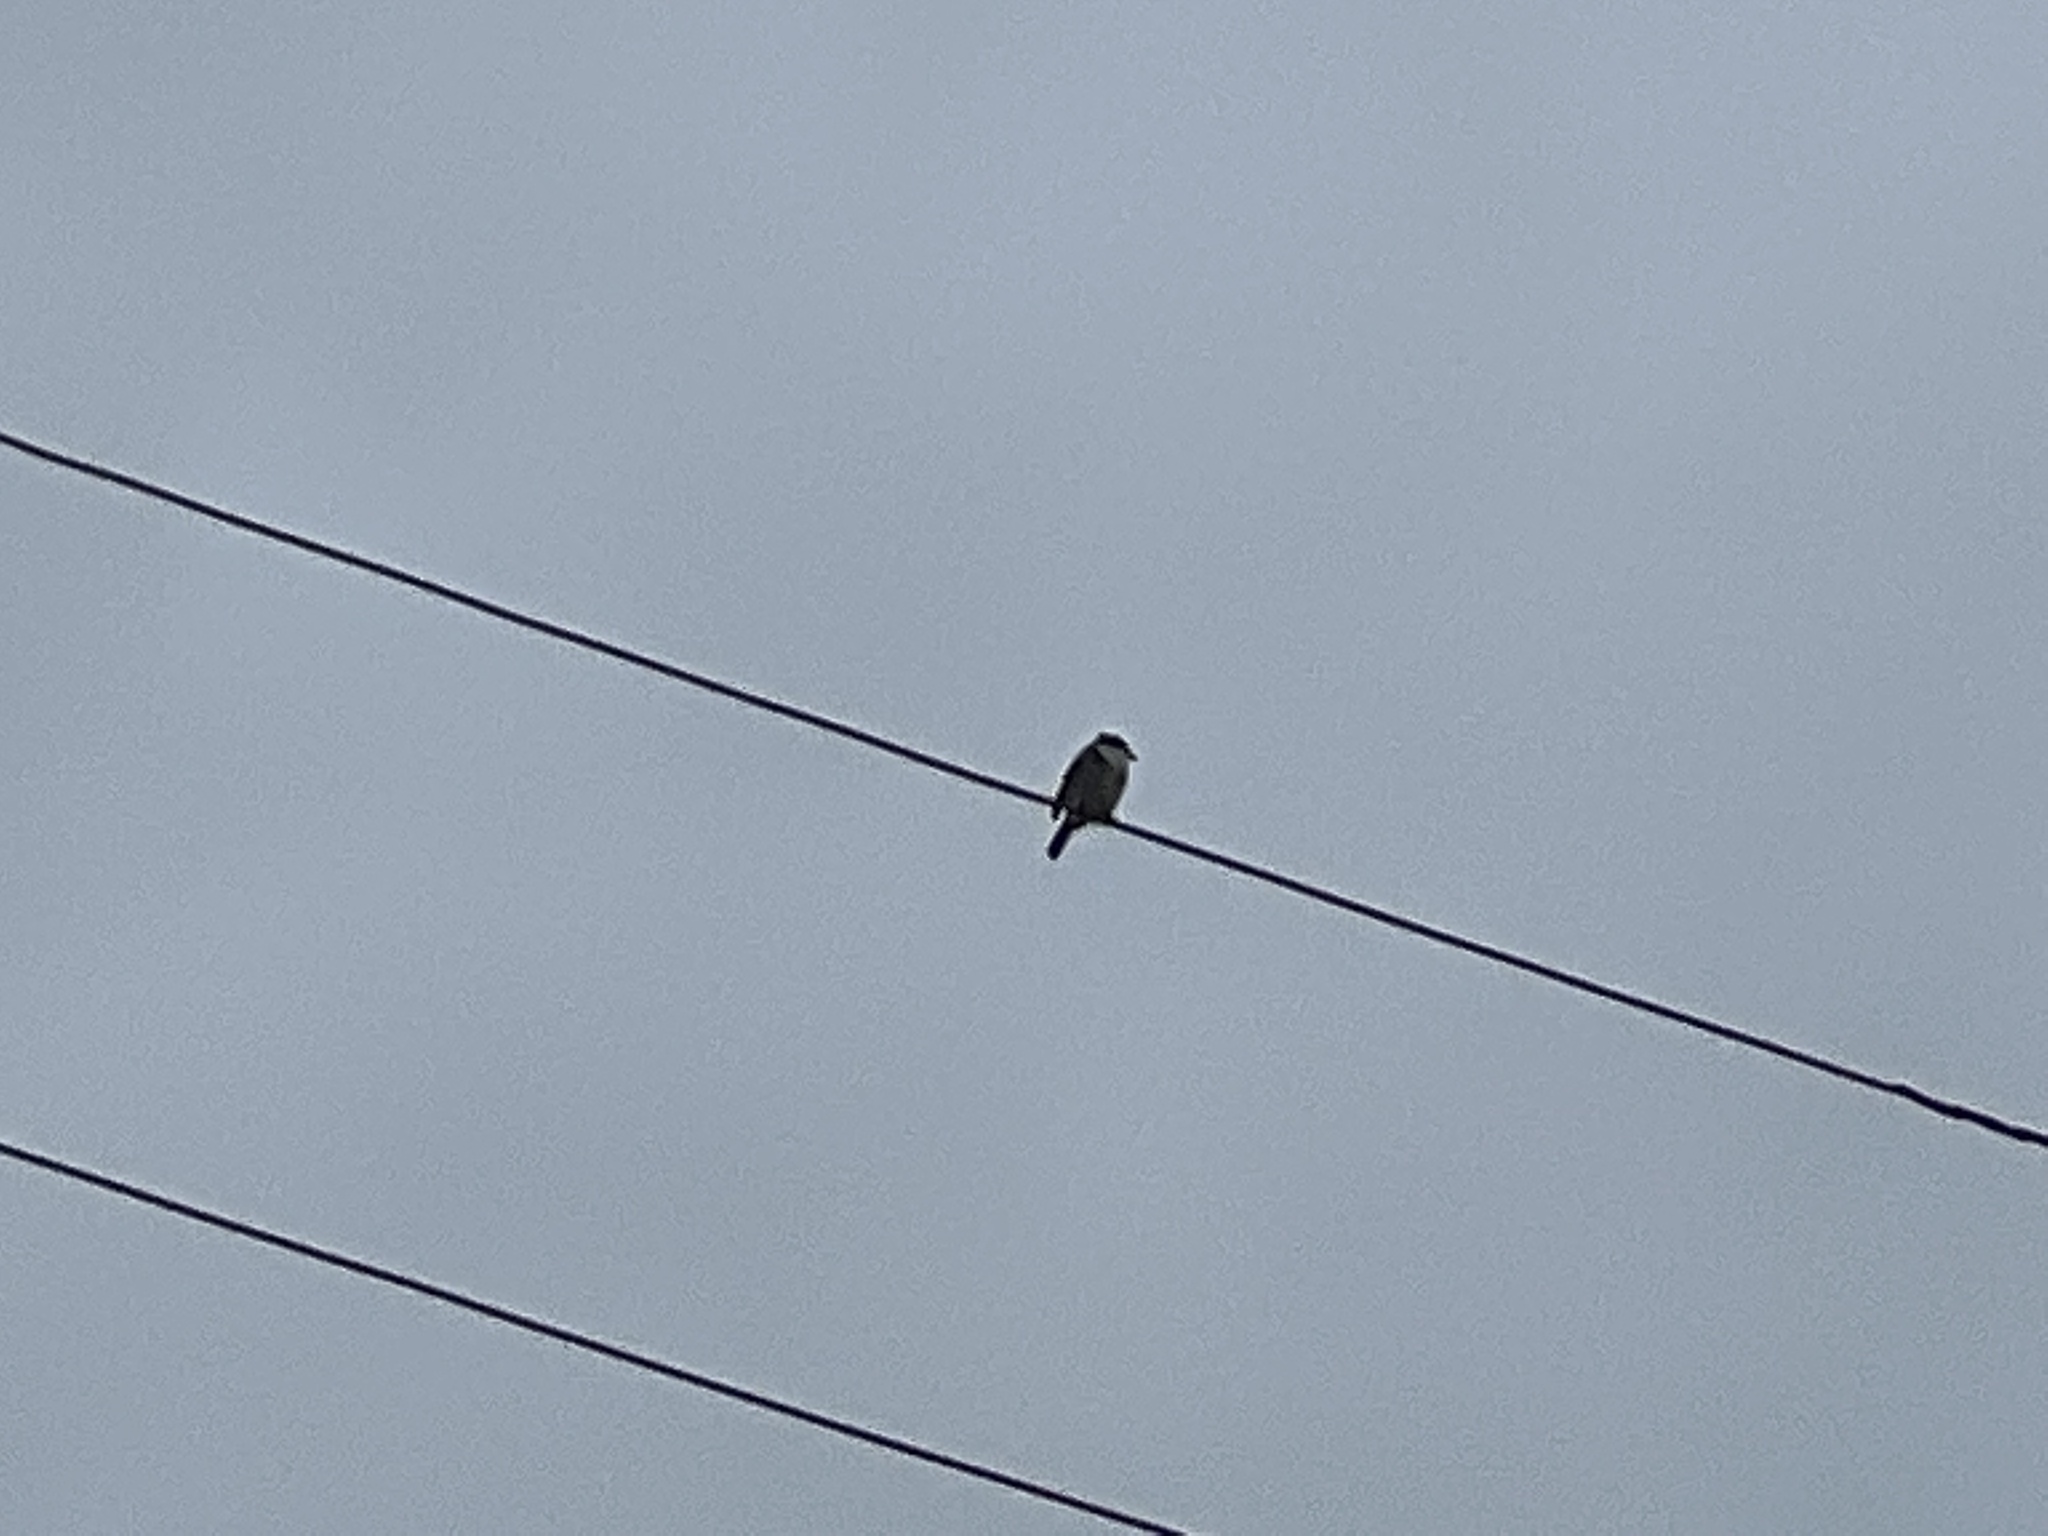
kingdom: Animalia
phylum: Chordata
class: Aves
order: Passeriformes
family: Laniidae
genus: Lanius
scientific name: Lanius ludovicianus
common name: Loggerhead shrike
